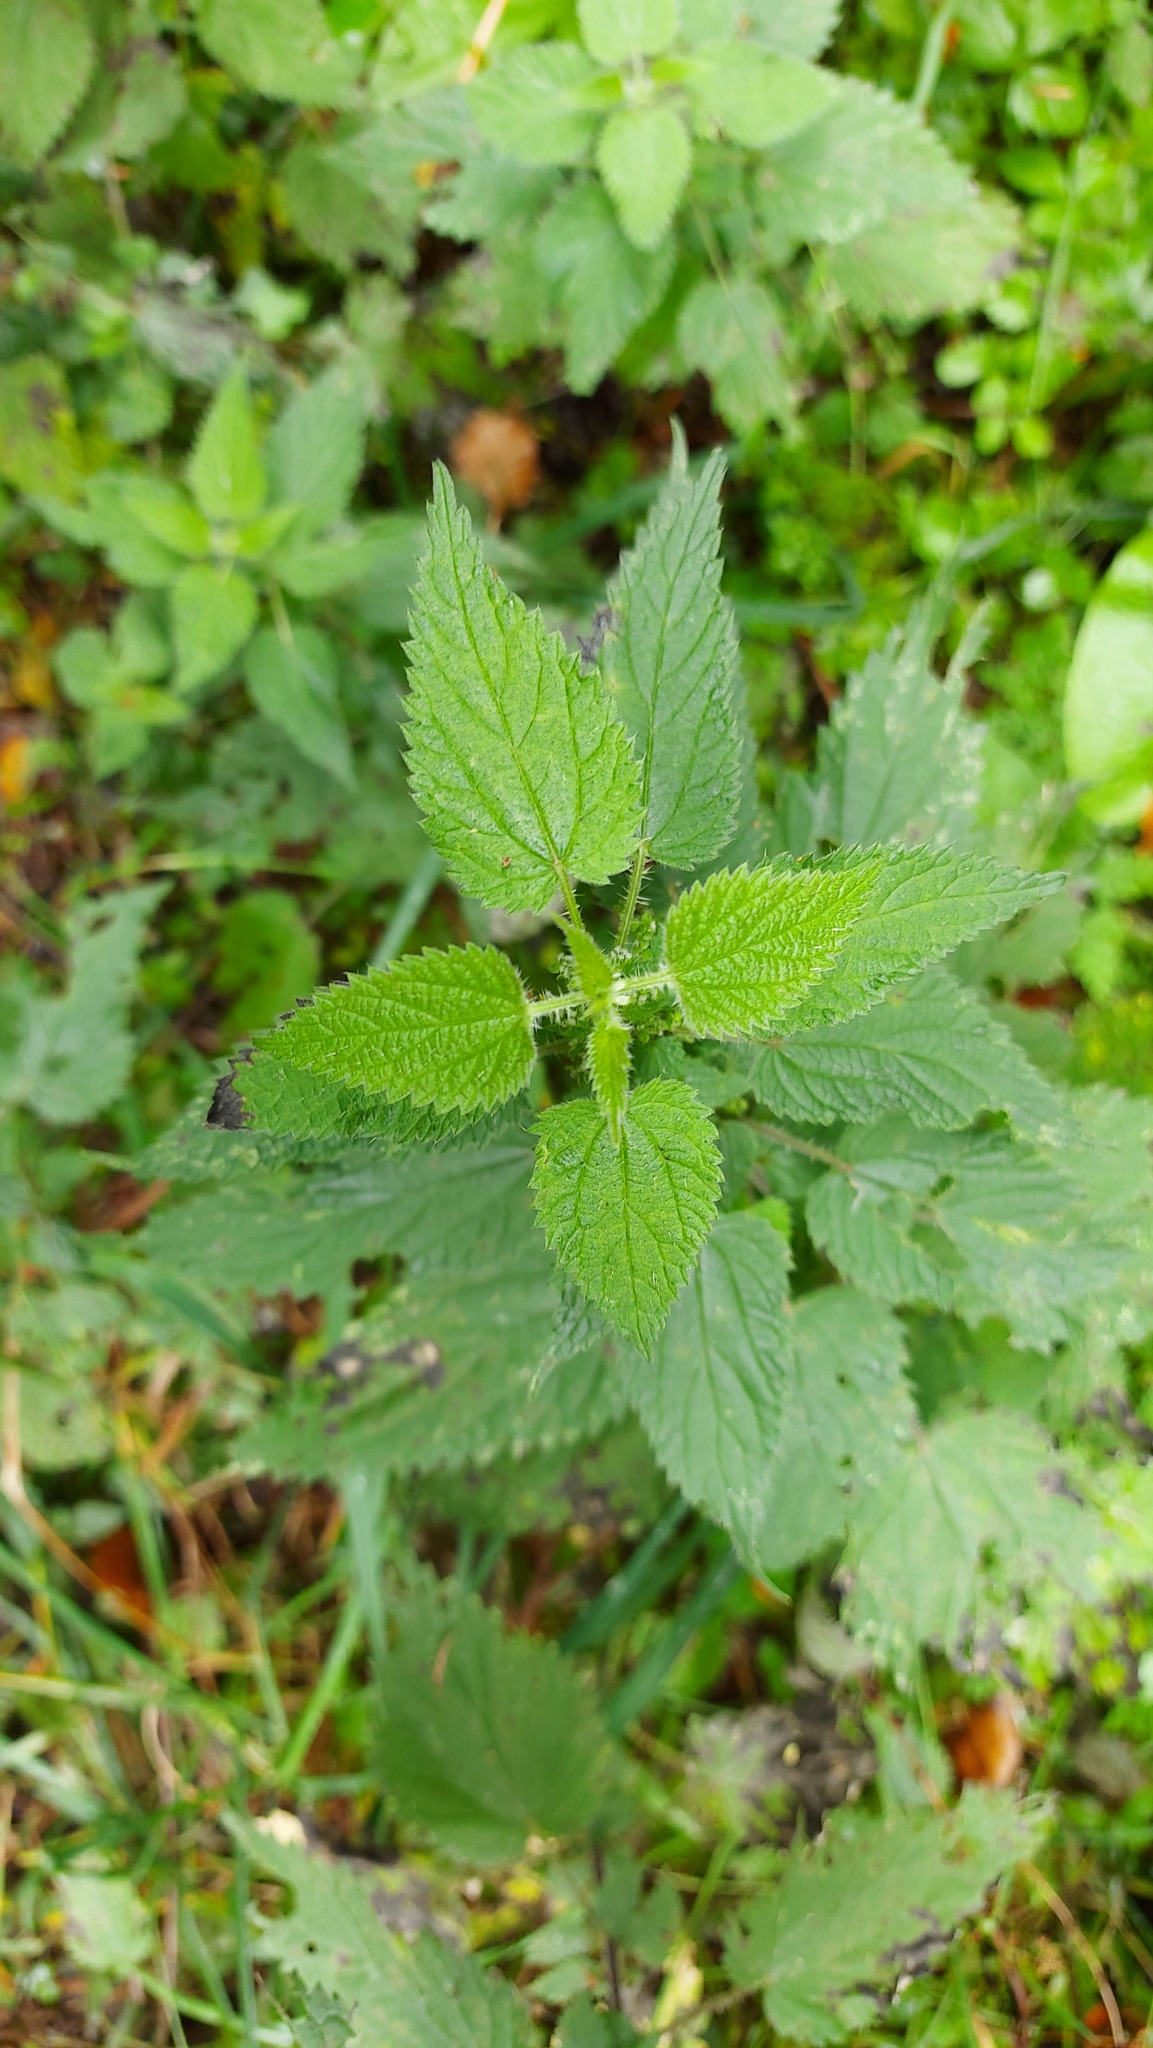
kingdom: Plantae
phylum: Tracheophyta
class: Magnoliopsida
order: Rosales
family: Urticaceae
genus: Urtica
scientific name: Urtica dioica
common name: Common nettle
